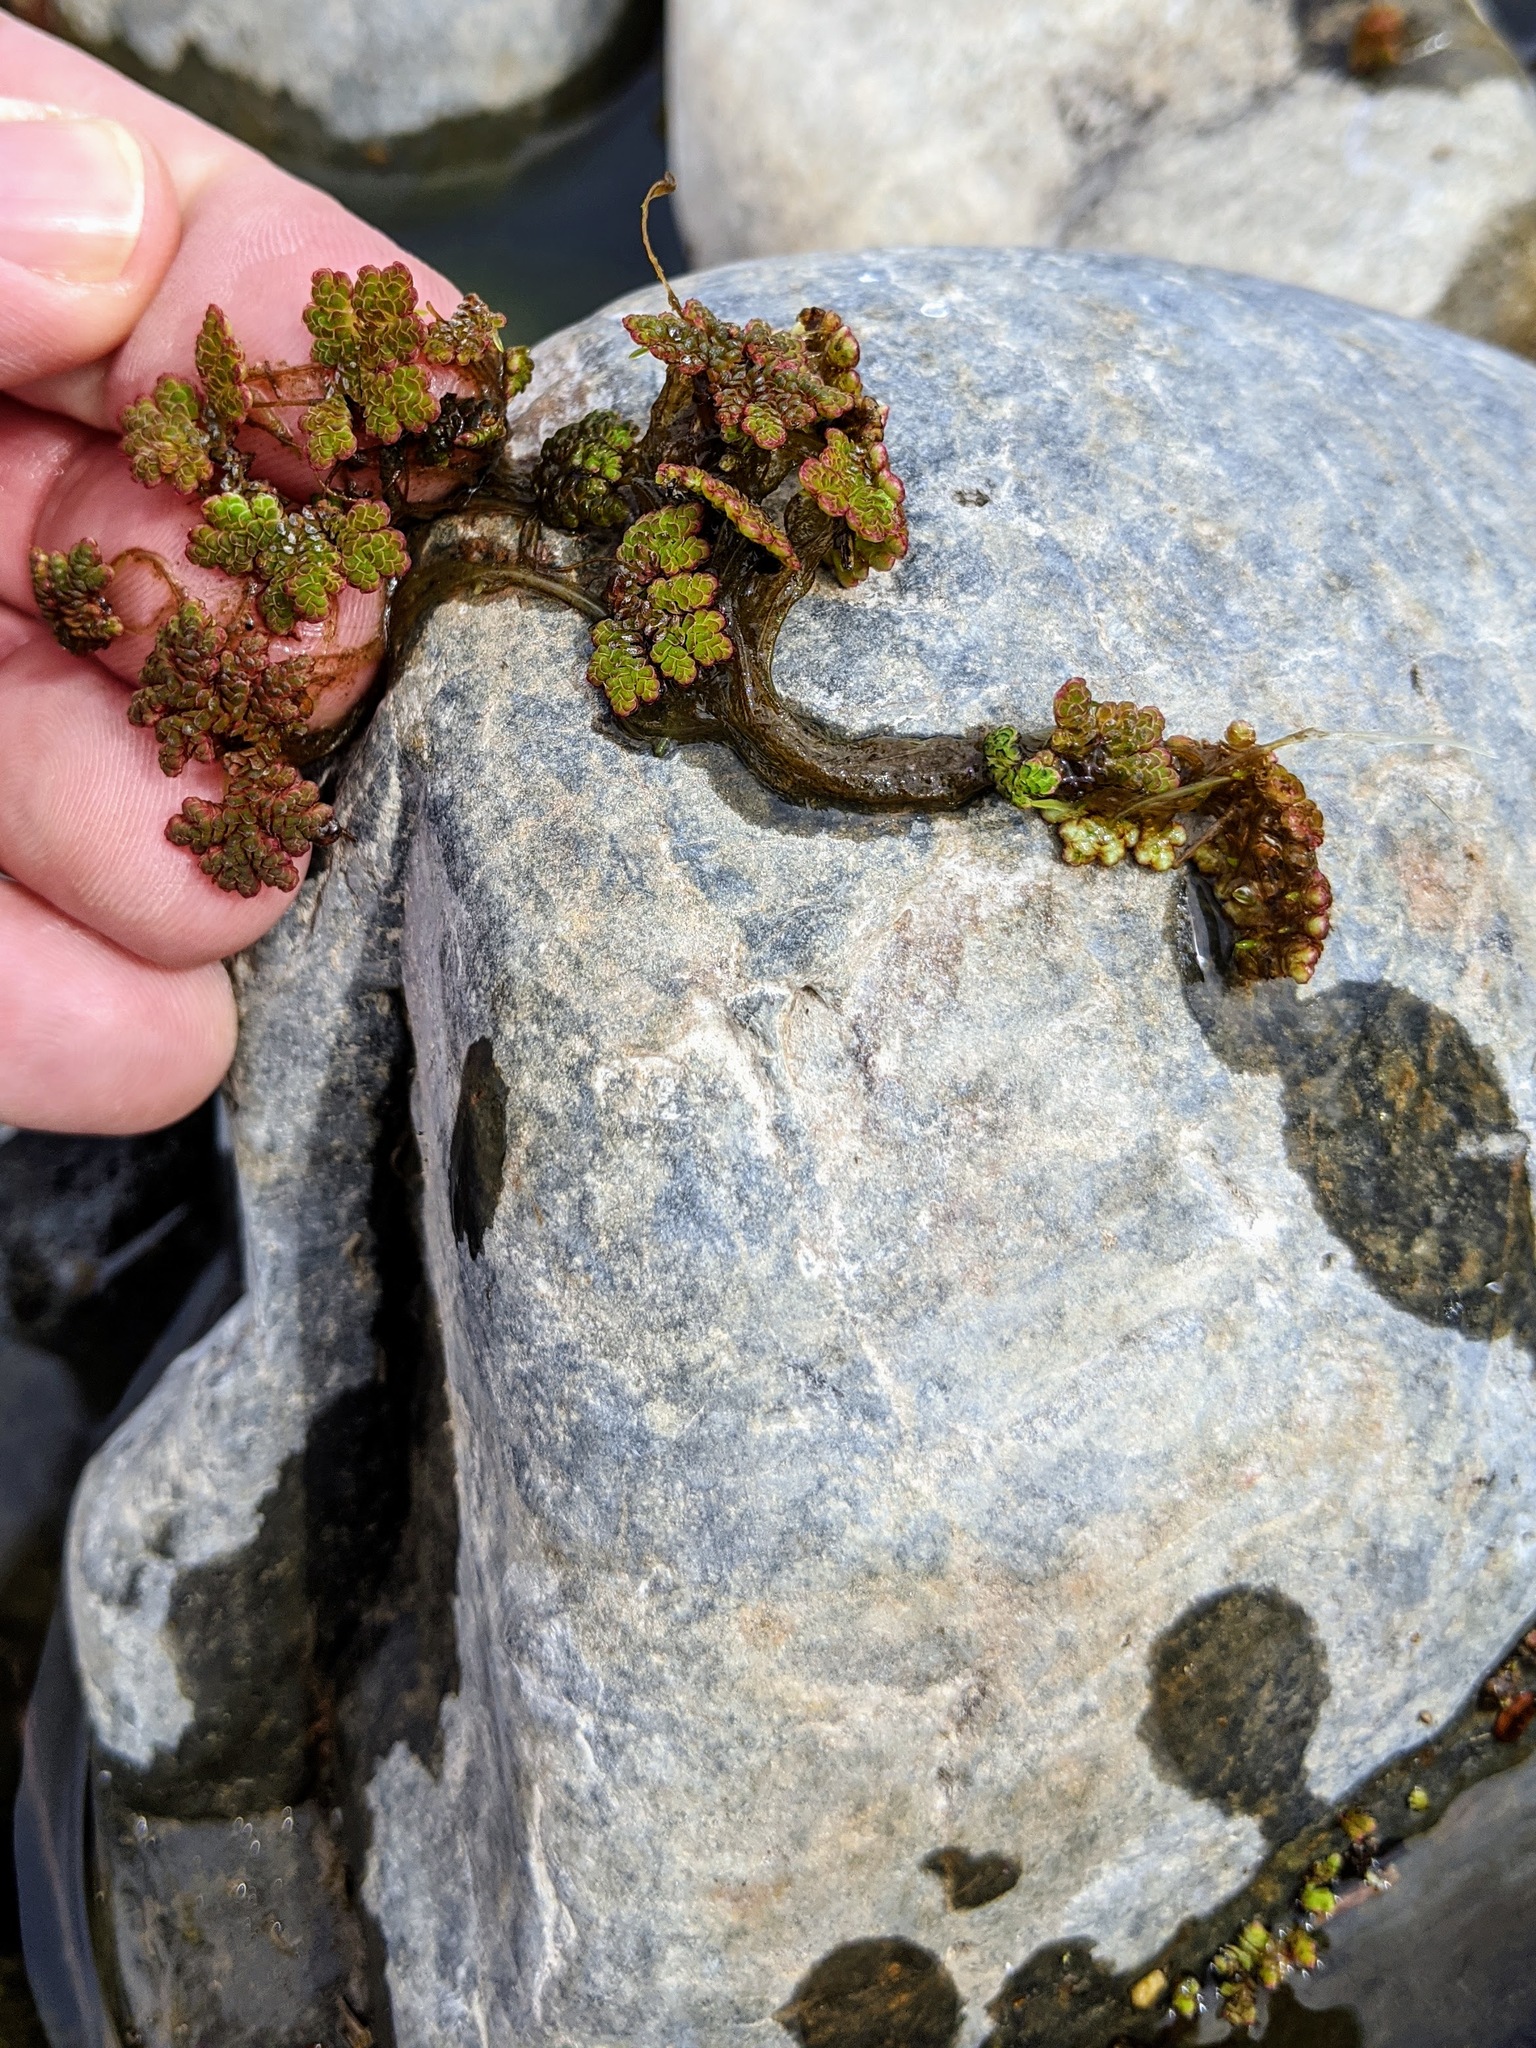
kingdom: Plantae
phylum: Tracheophyta
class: Polypodiopsida
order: Salviniales
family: Salviniaceae
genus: Azolla
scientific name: Azolla filiculoides
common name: Water fern
